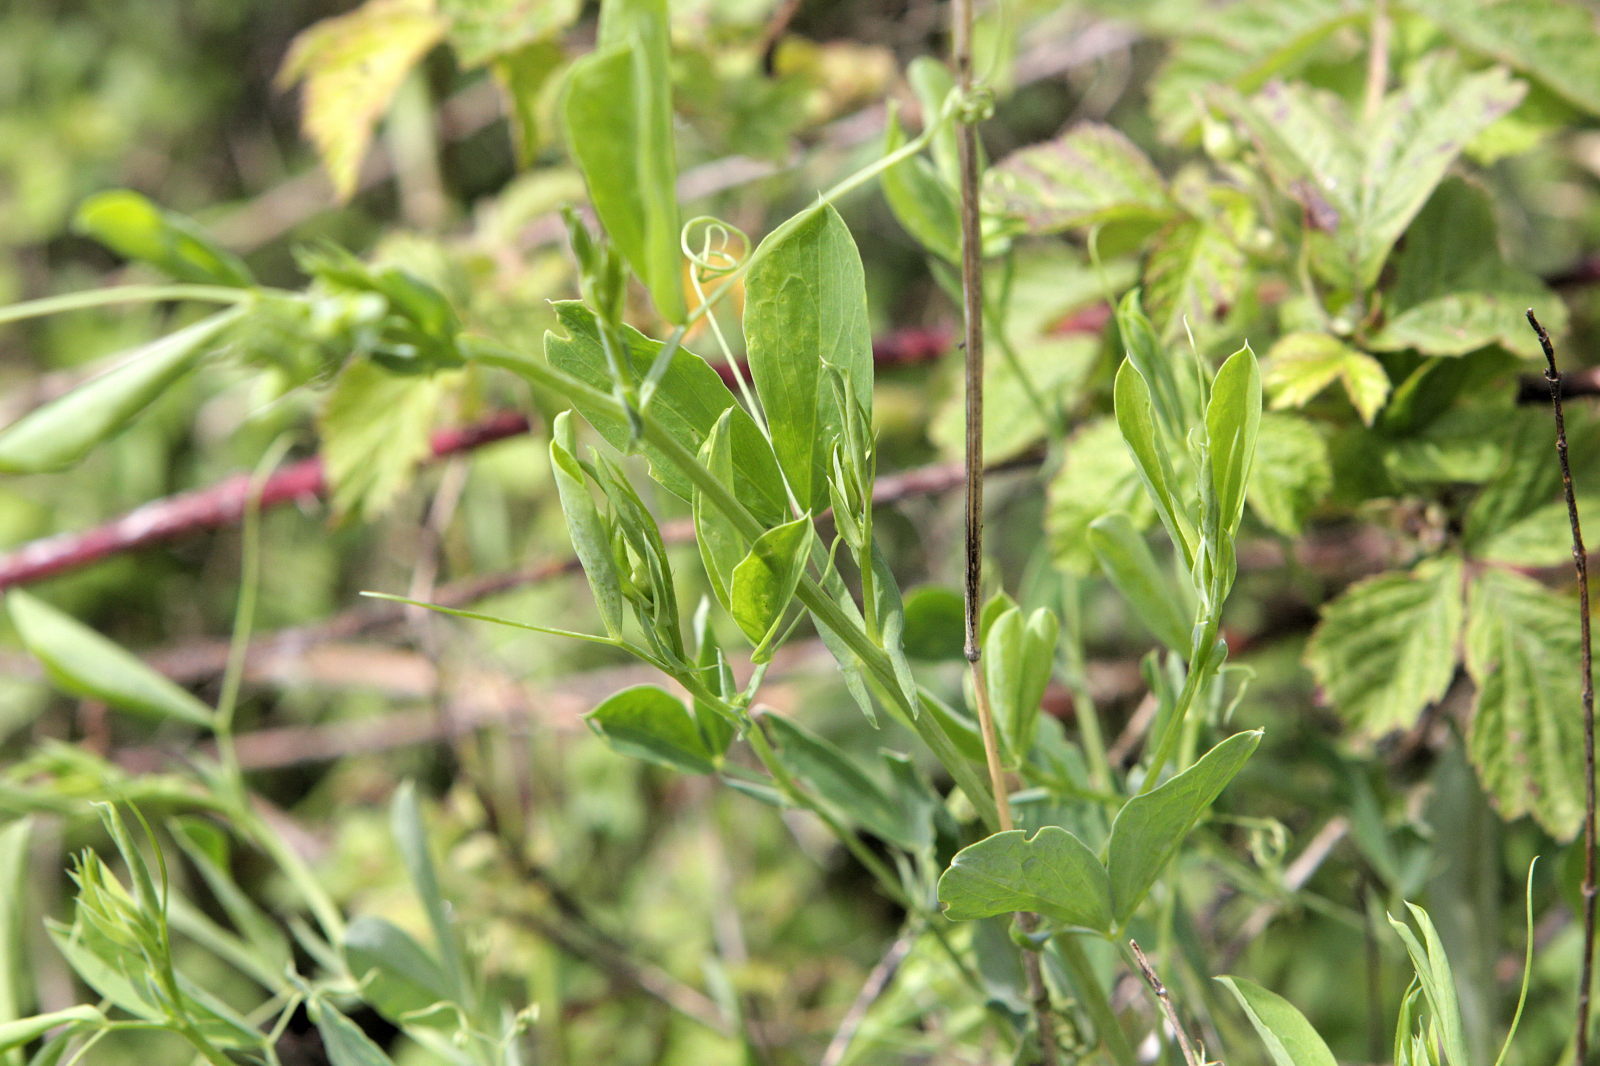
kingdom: Plantae
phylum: Tracheophyta
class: Magnoliopsida
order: Fabales
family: Fabaceae
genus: Lathyrus
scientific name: Lathyrus pratensis
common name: Meadow vetchling
